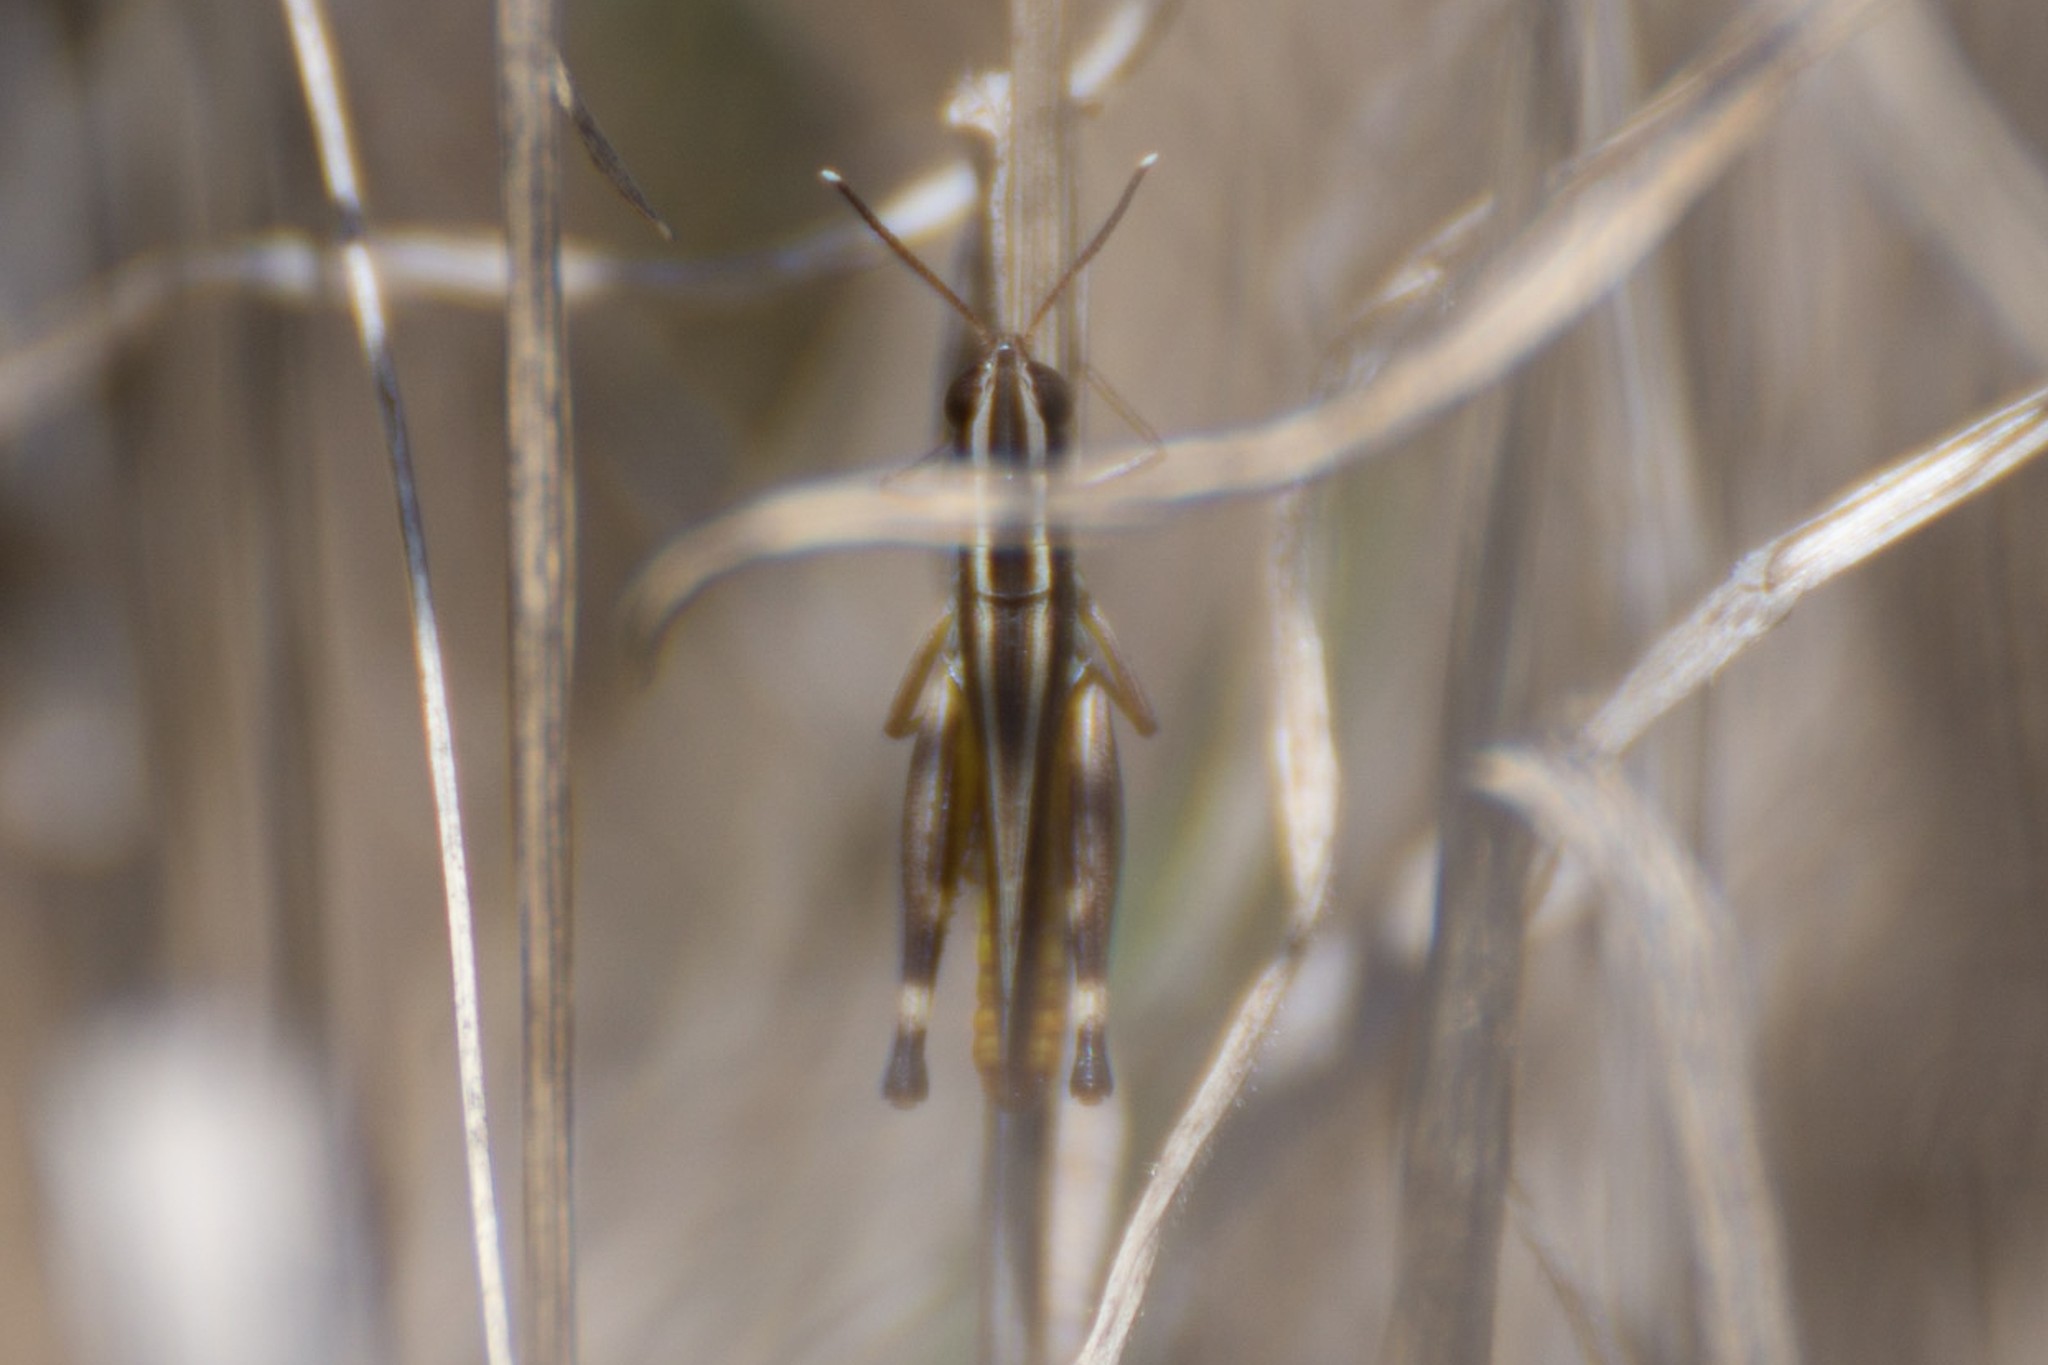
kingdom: Animalia
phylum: Arthropoda
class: Insecta
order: Orthoptera
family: Acrididae
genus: Macrotona
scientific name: Macrotona australis
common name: Common macrotona
